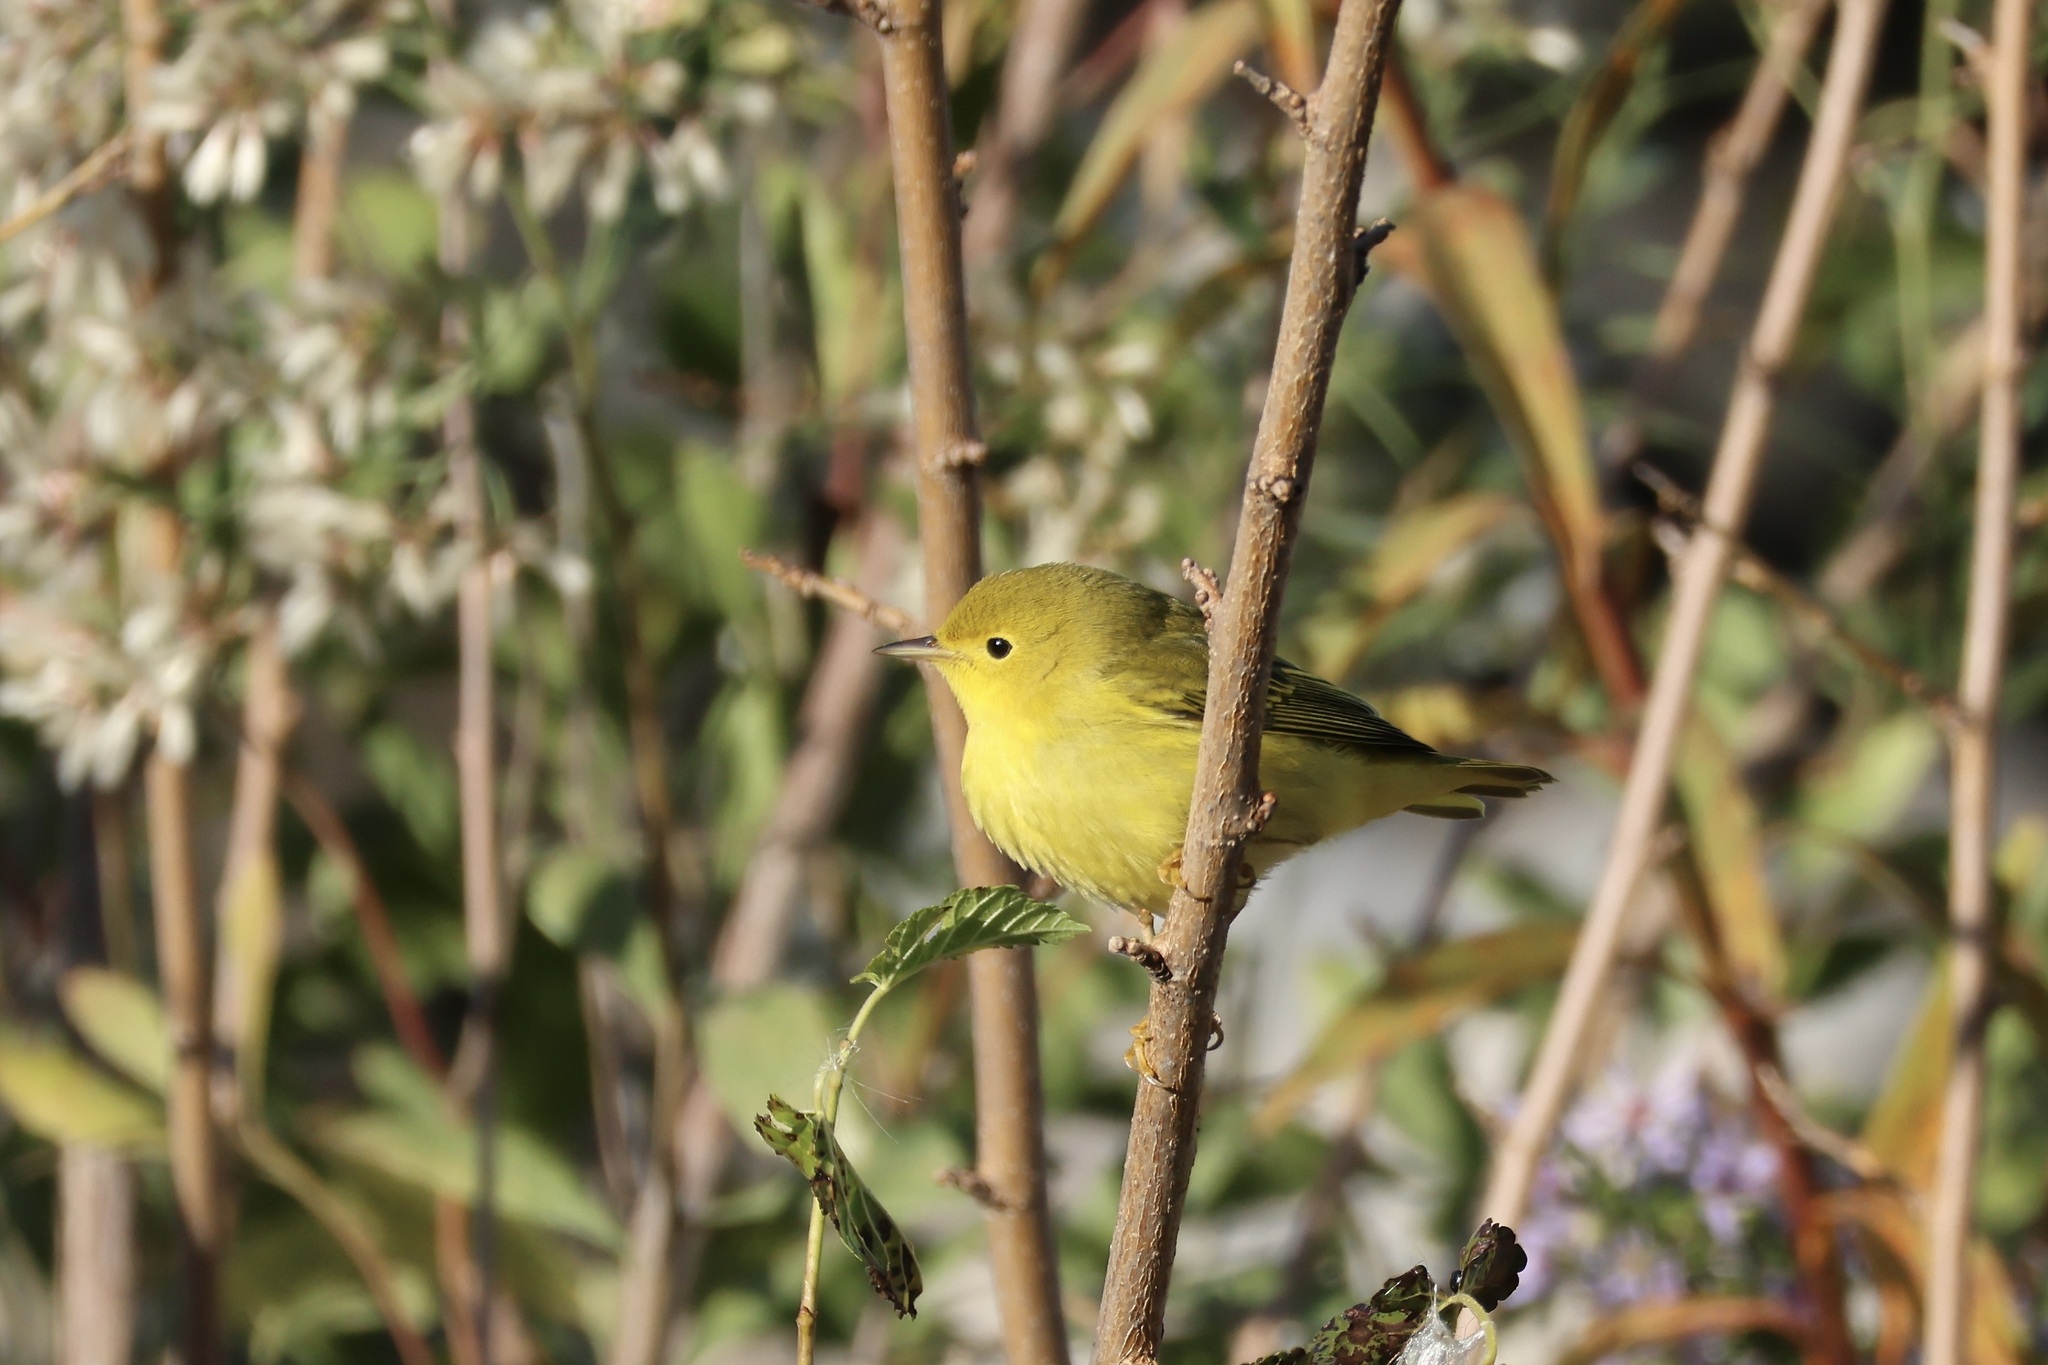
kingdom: Animalia
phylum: Chordata
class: Aves
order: Passeriformes
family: Parulidae
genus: Setophaga
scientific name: Setophaga petechia
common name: Yellow warbler
